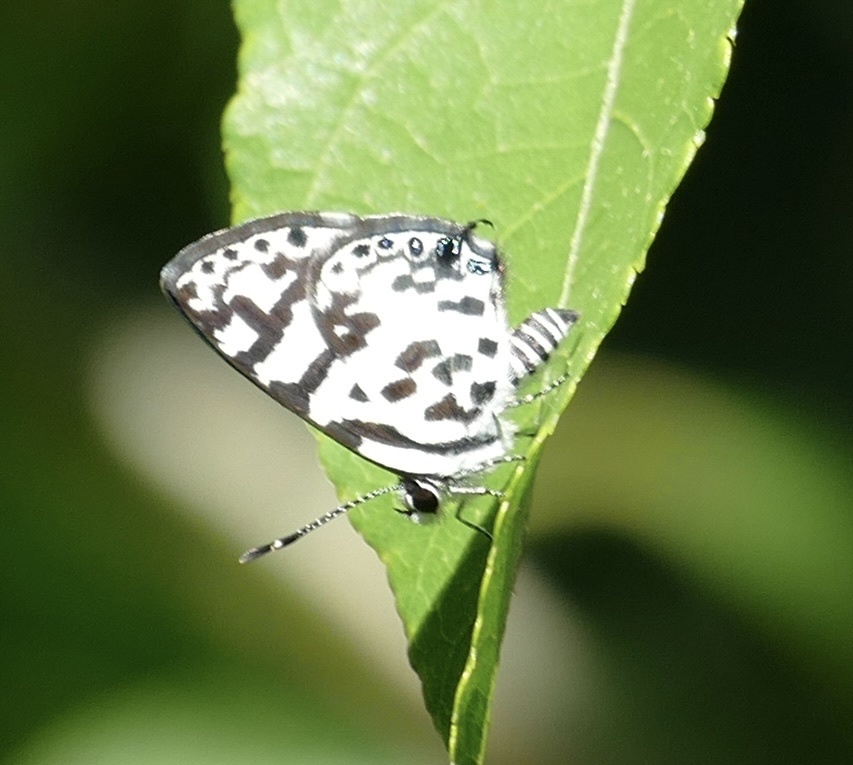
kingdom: Animalia
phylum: Arthropoda
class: Insecta
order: Lepidoptera
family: Lycaenidae
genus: Castalius
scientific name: Castalius melaena
